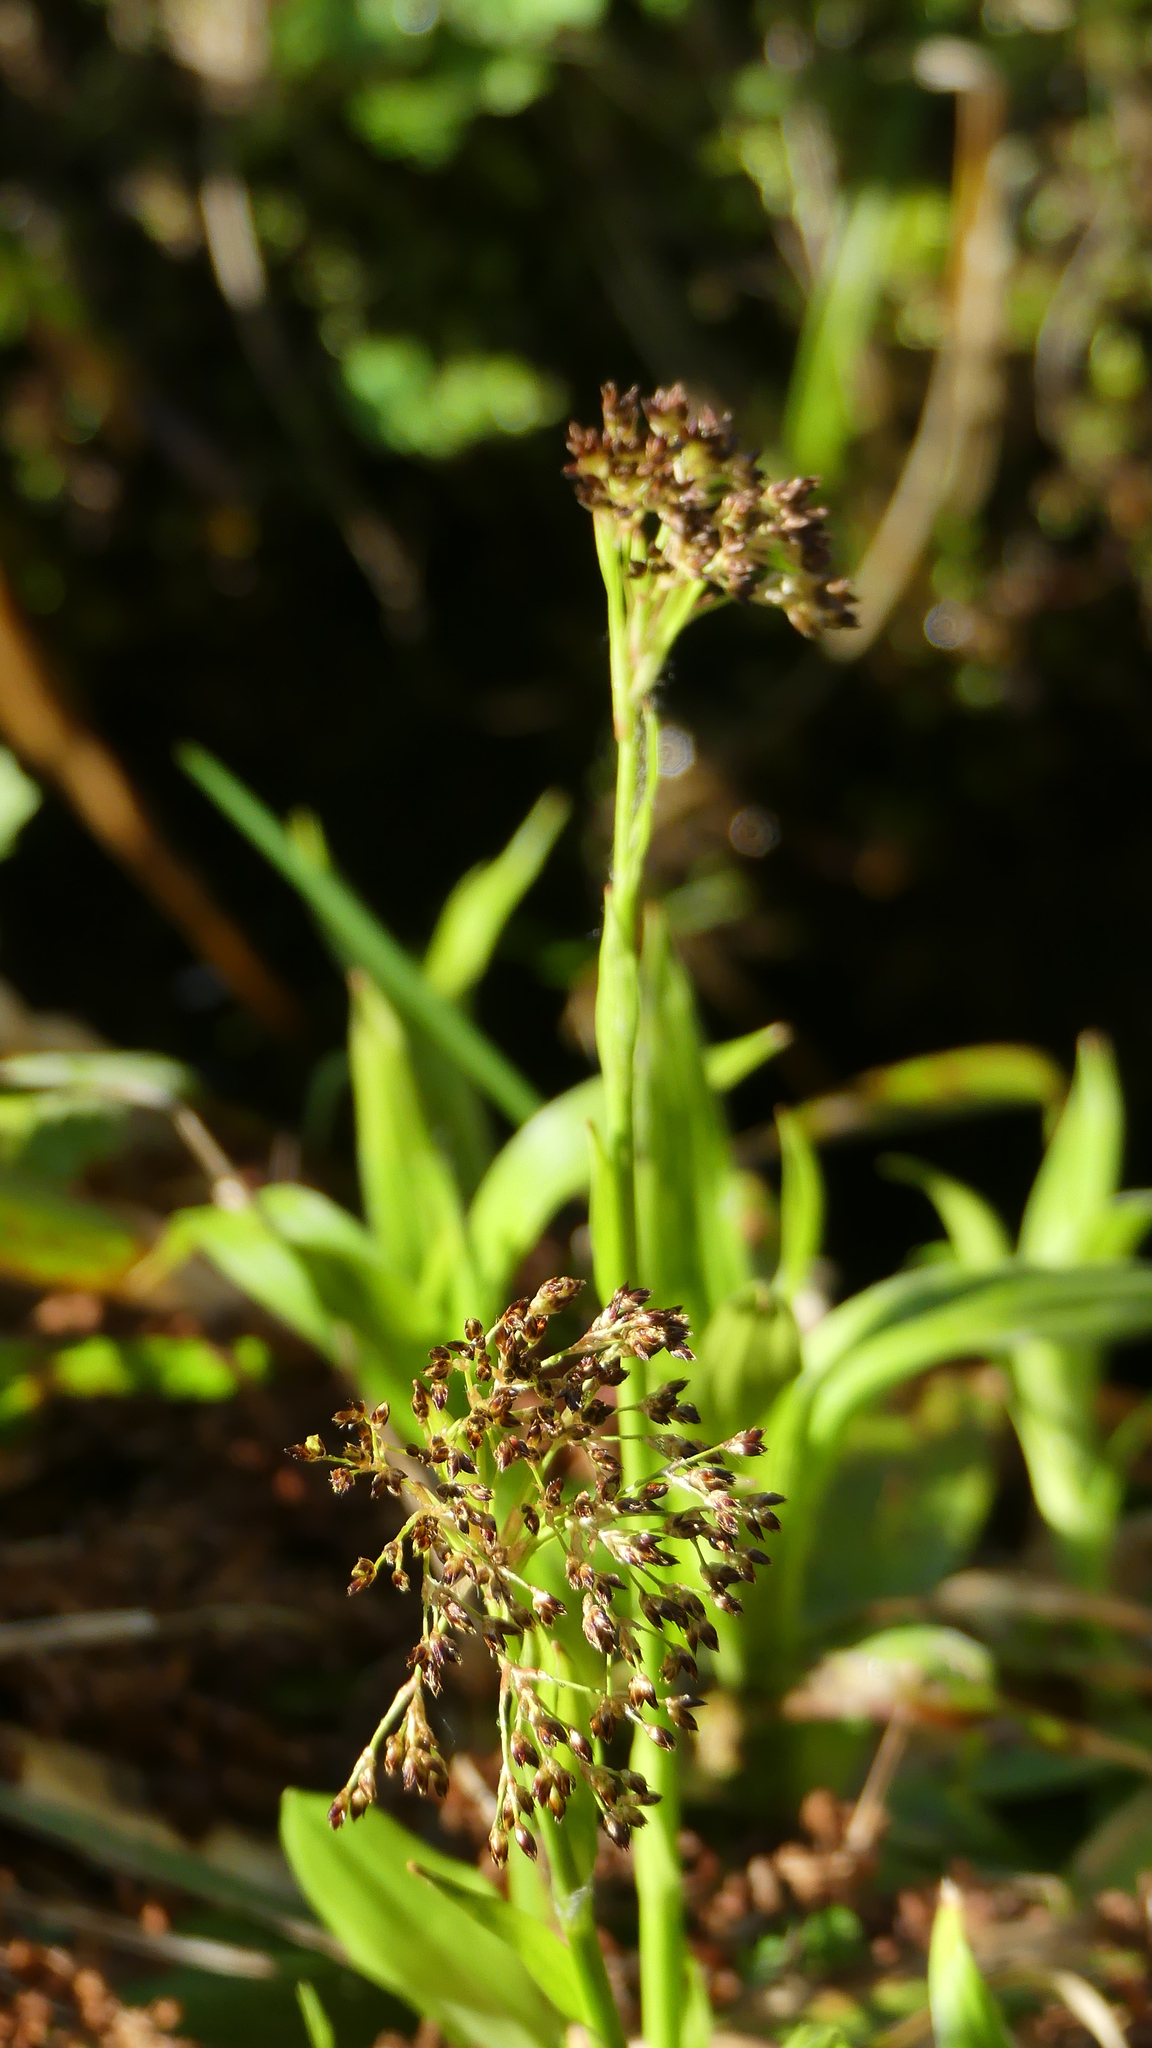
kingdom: Plantae
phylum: Tracheophyta
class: Liliopsida
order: Poales
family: Juncaceae
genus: Luzula
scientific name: Luzula sylvatica
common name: Great wood-rush
